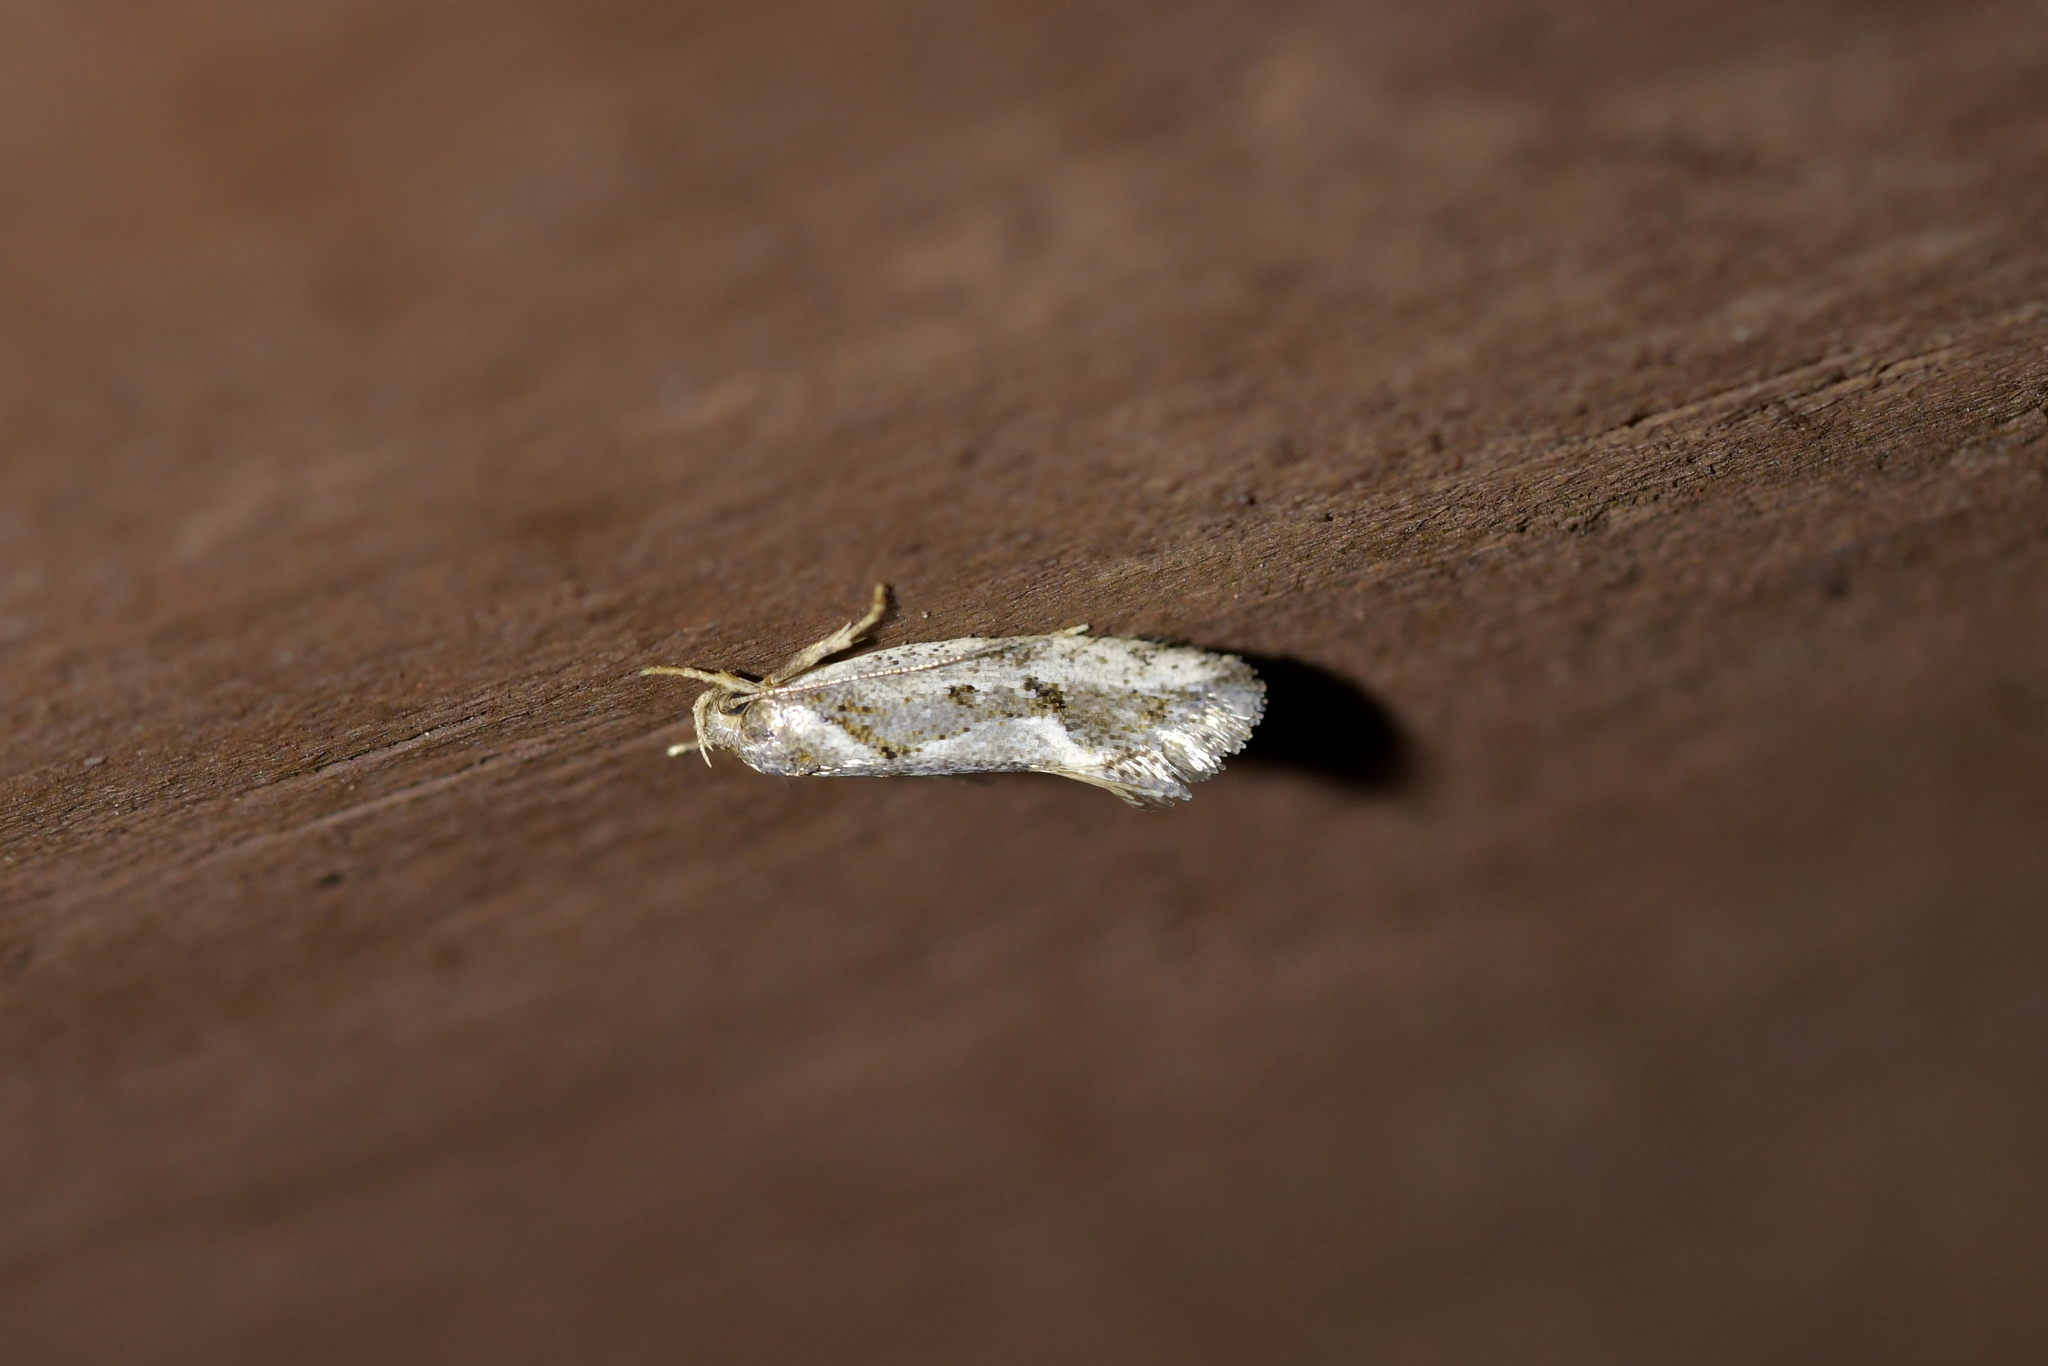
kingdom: Animalia
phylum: Arthropoda
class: Insecta
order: Lepidoptera
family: Oecophoridae
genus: Tingena
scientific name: Tingena hemimochla
